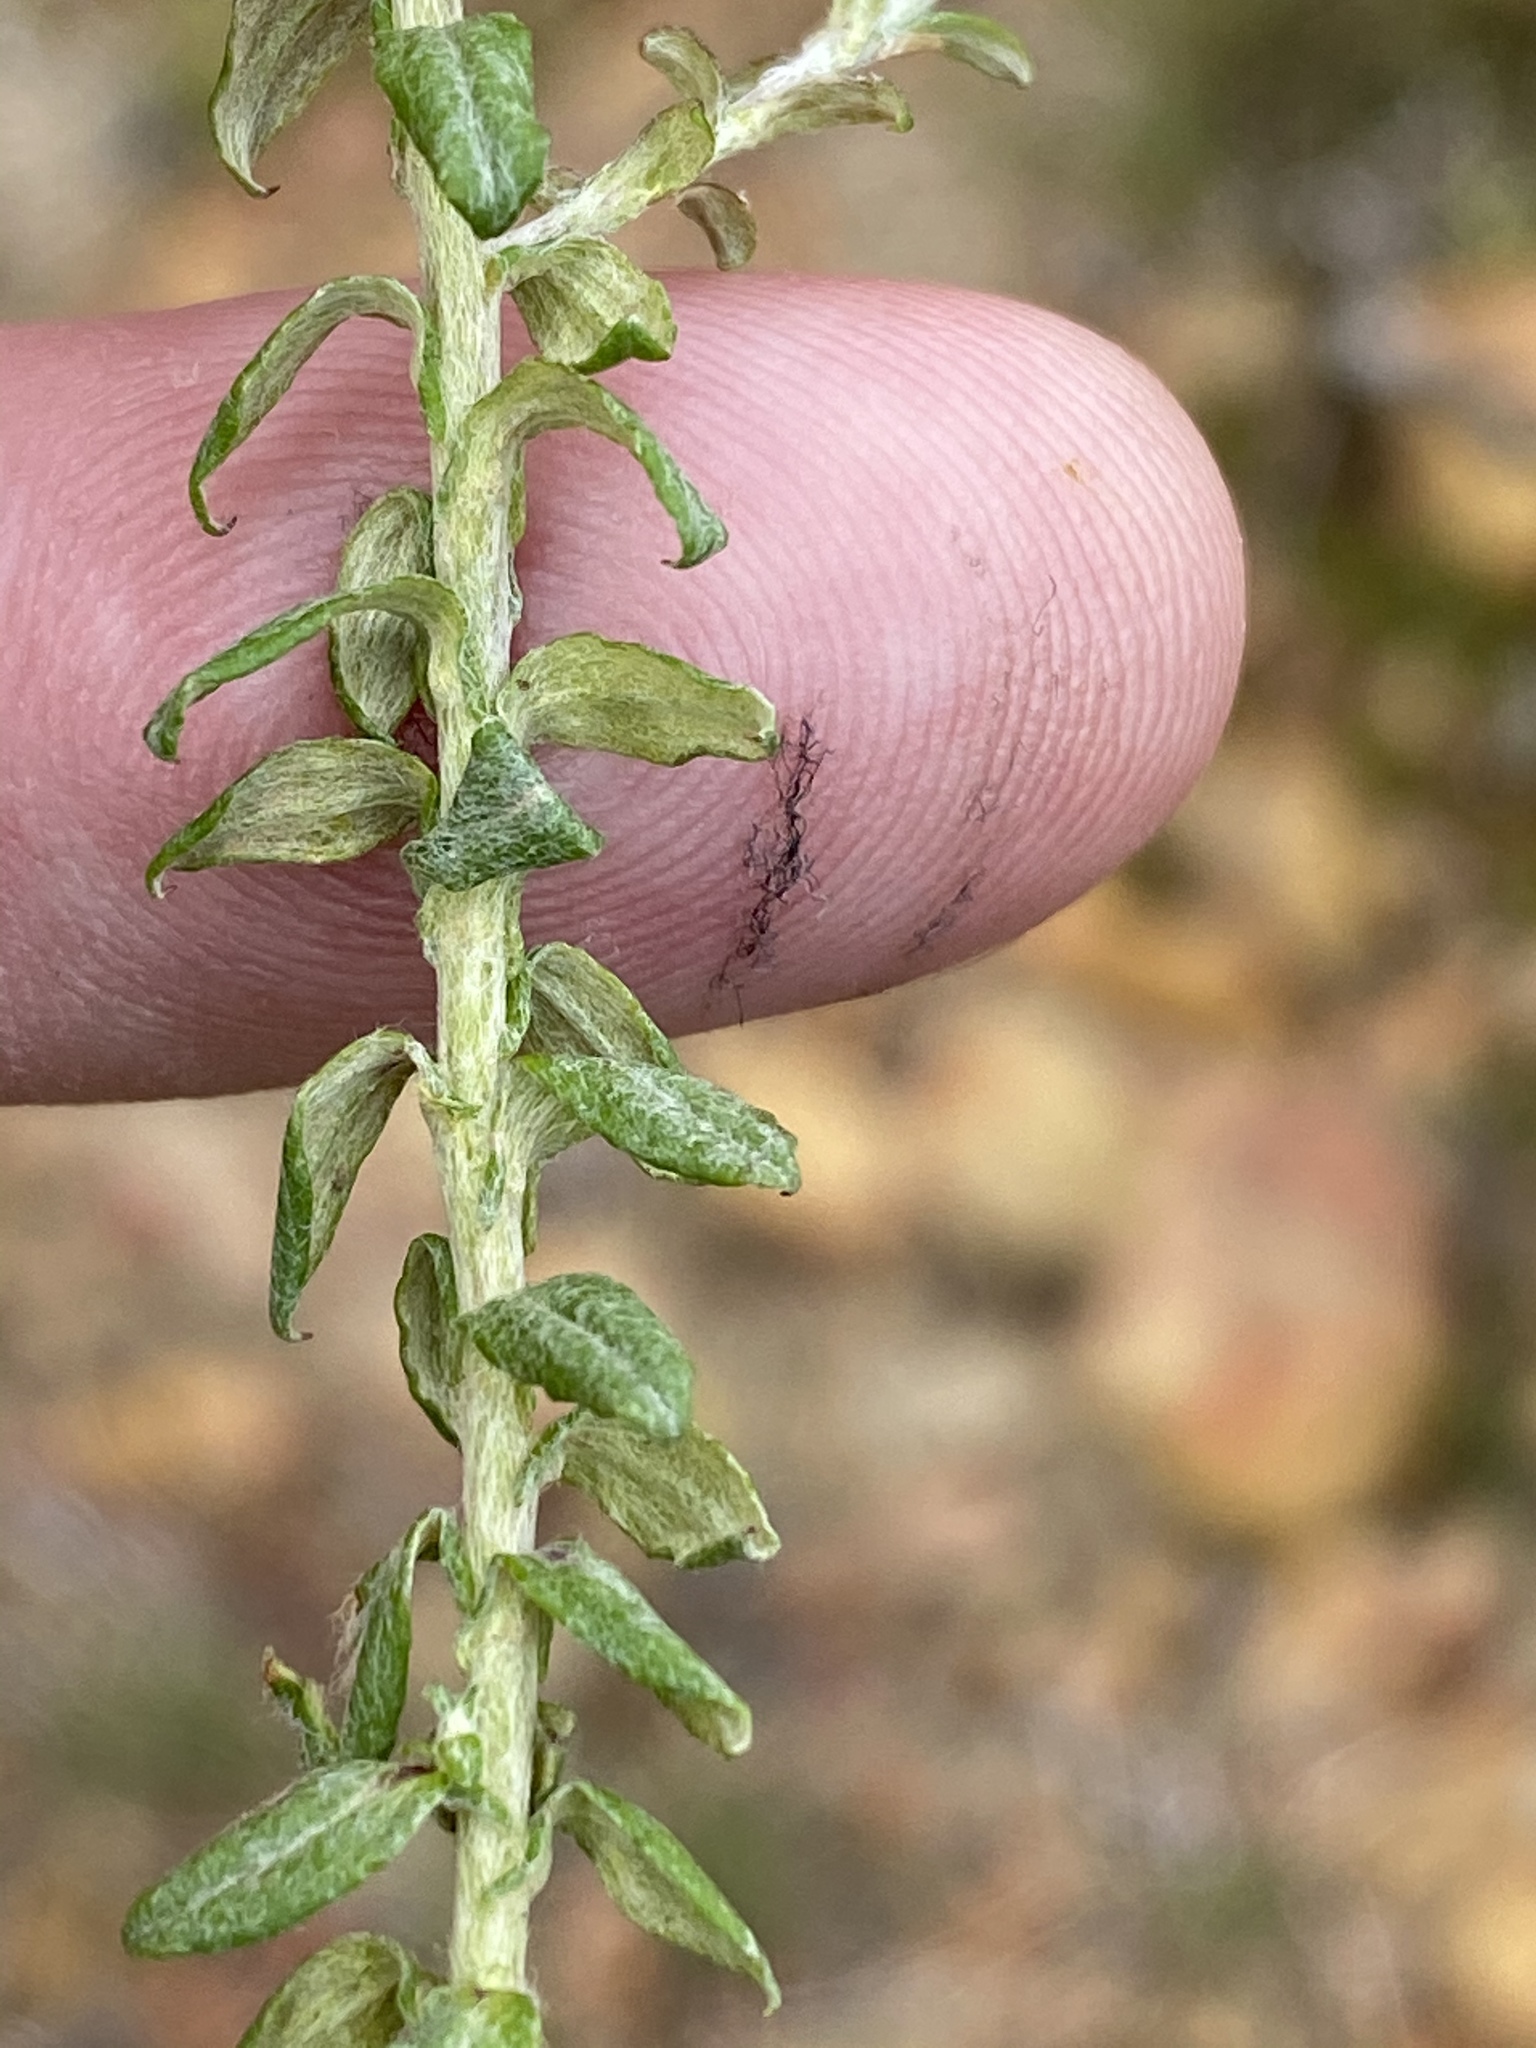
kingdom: Plantae
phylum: Tracheophyta
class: Magnoliopsida
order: Asterales
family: Asteraceae
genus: Helichrysum
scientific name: Helichrysum cymosum
